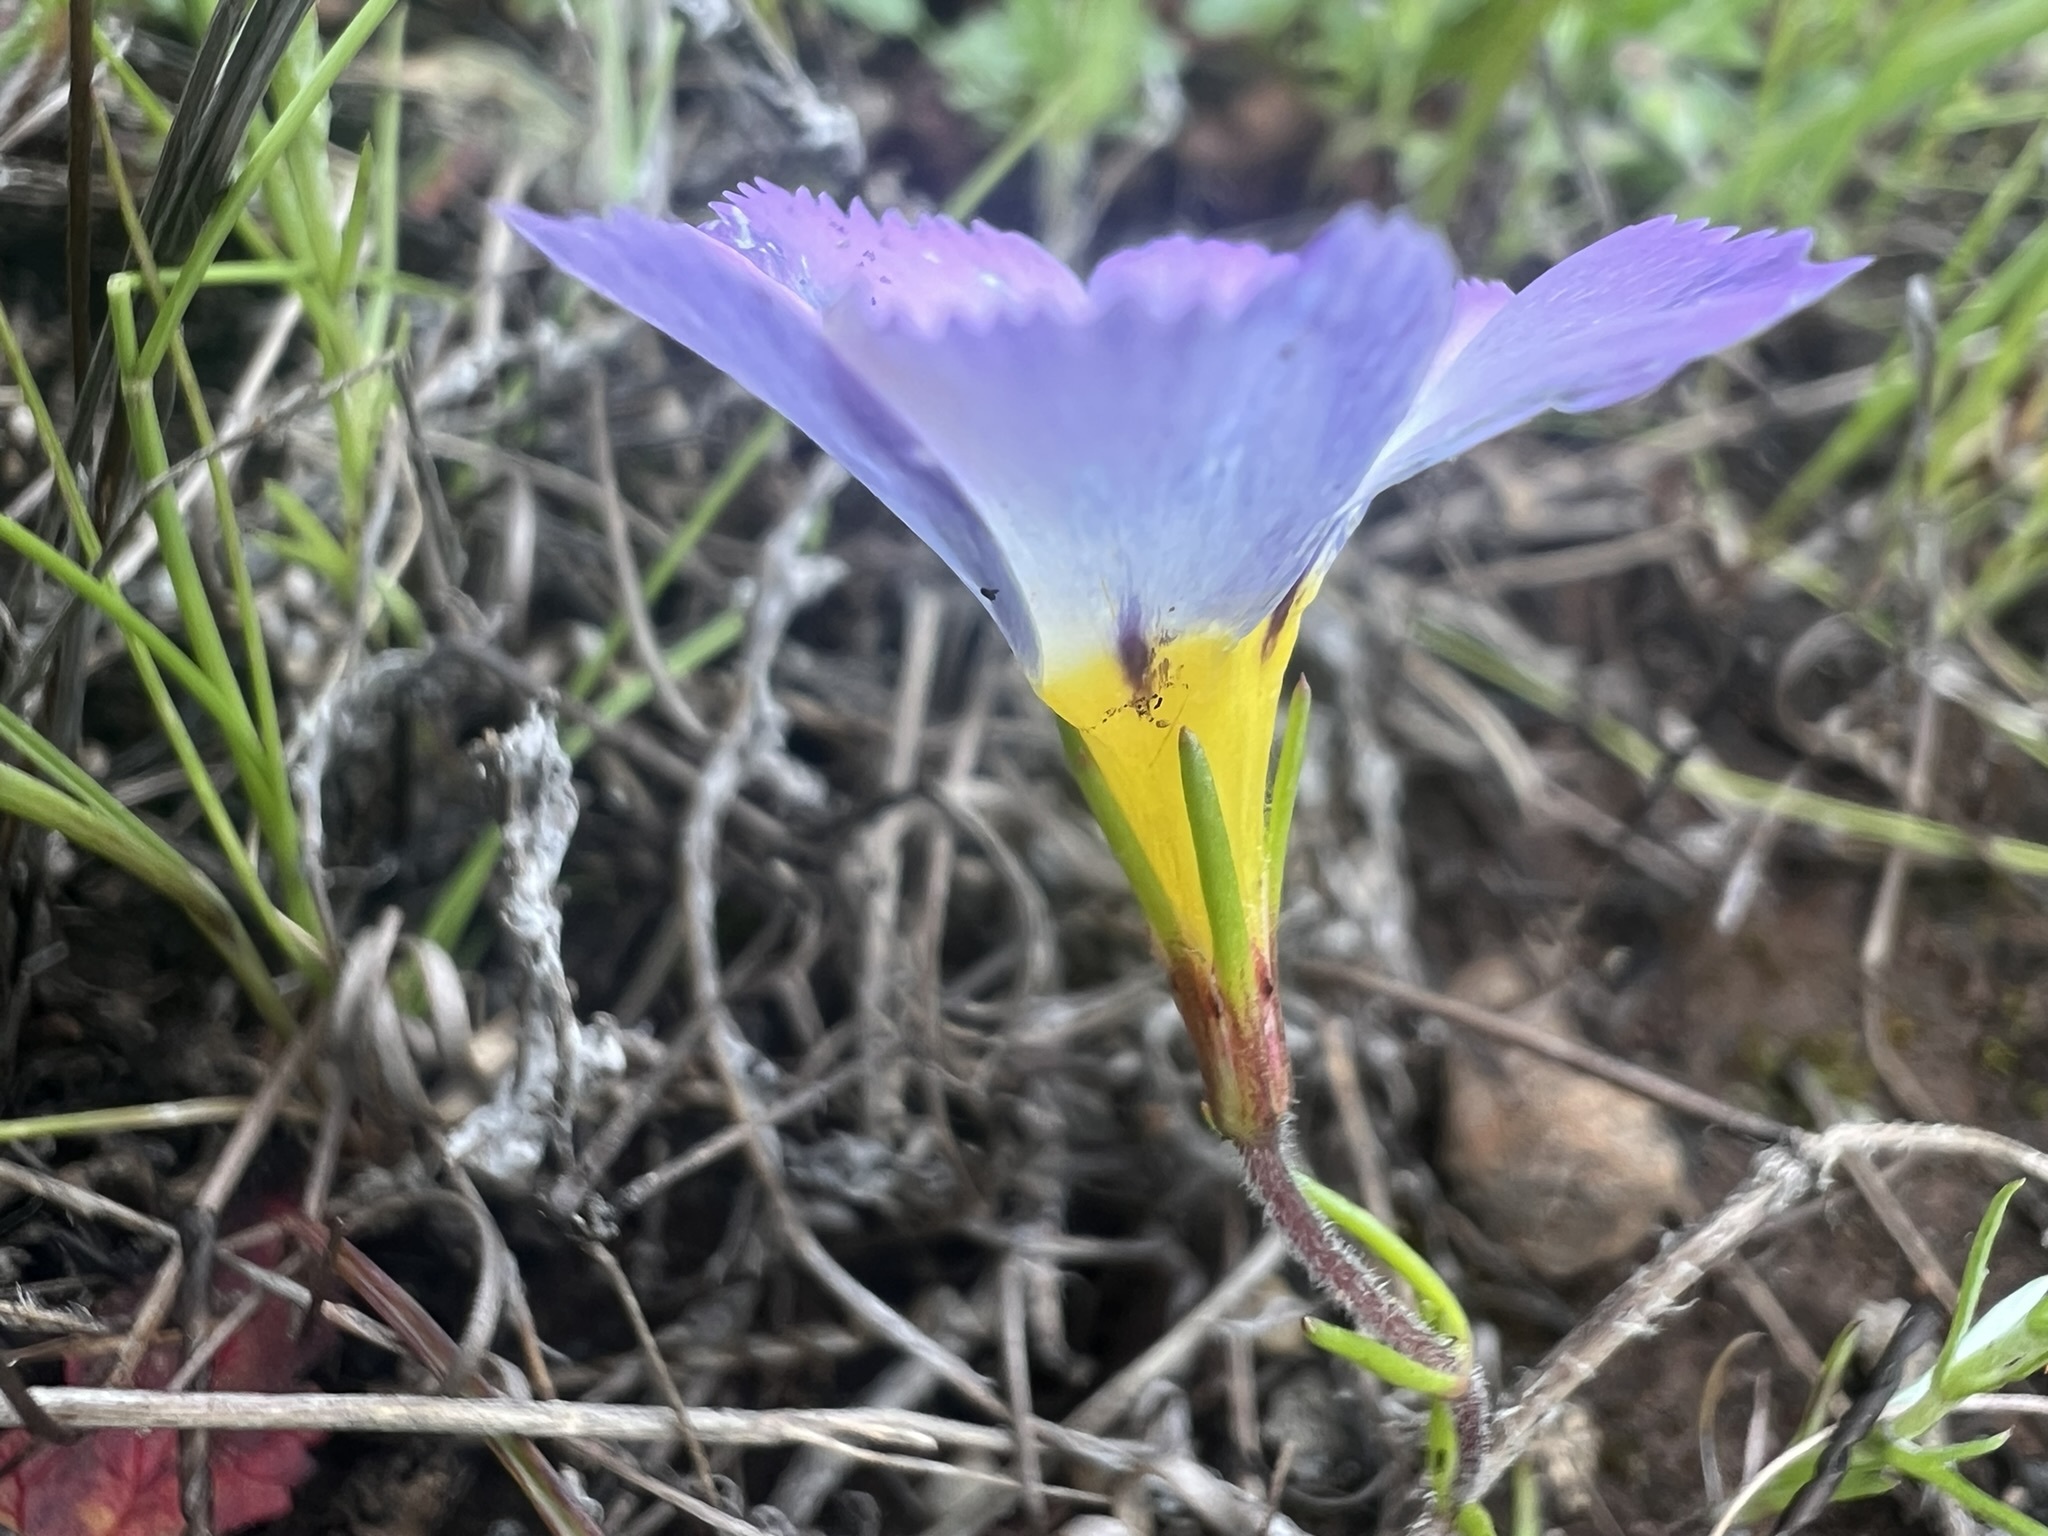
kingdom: Plantae
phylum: Tracheophyta
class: Magnoliopsida
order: Ericales
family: Polemoniaceae
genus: Linanthus
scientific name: Linanthus dianthiflorus
